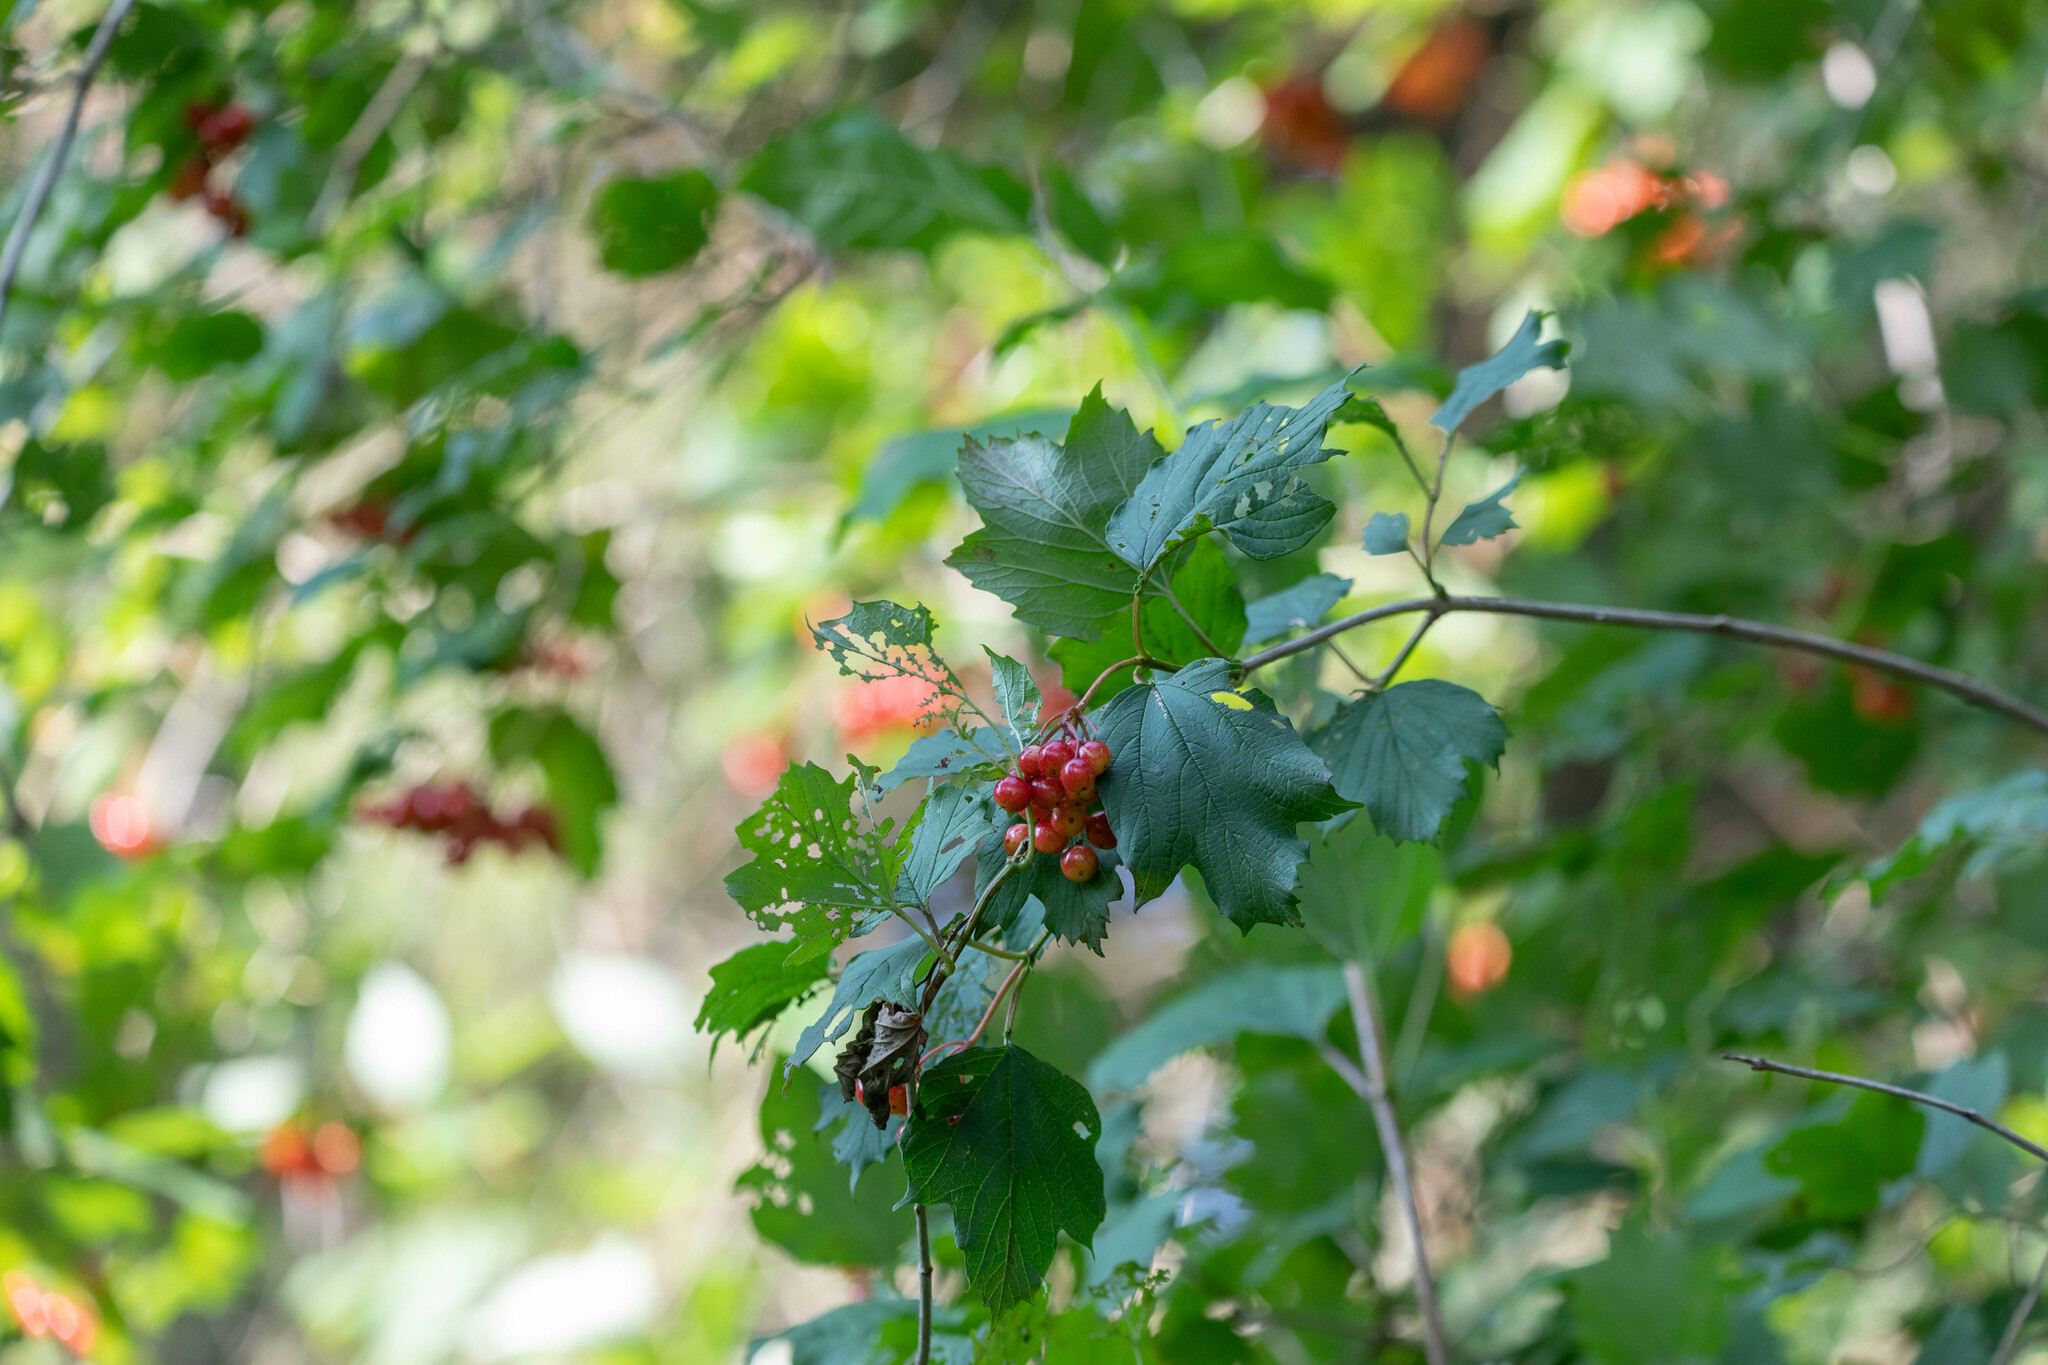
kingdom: Plantae
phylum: Tracheophyta
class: Magnoliopsida
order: Dipsacales
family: Viburnaceae
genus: Viburnum
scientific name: Viburnum opulus
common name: Guelder-rose
